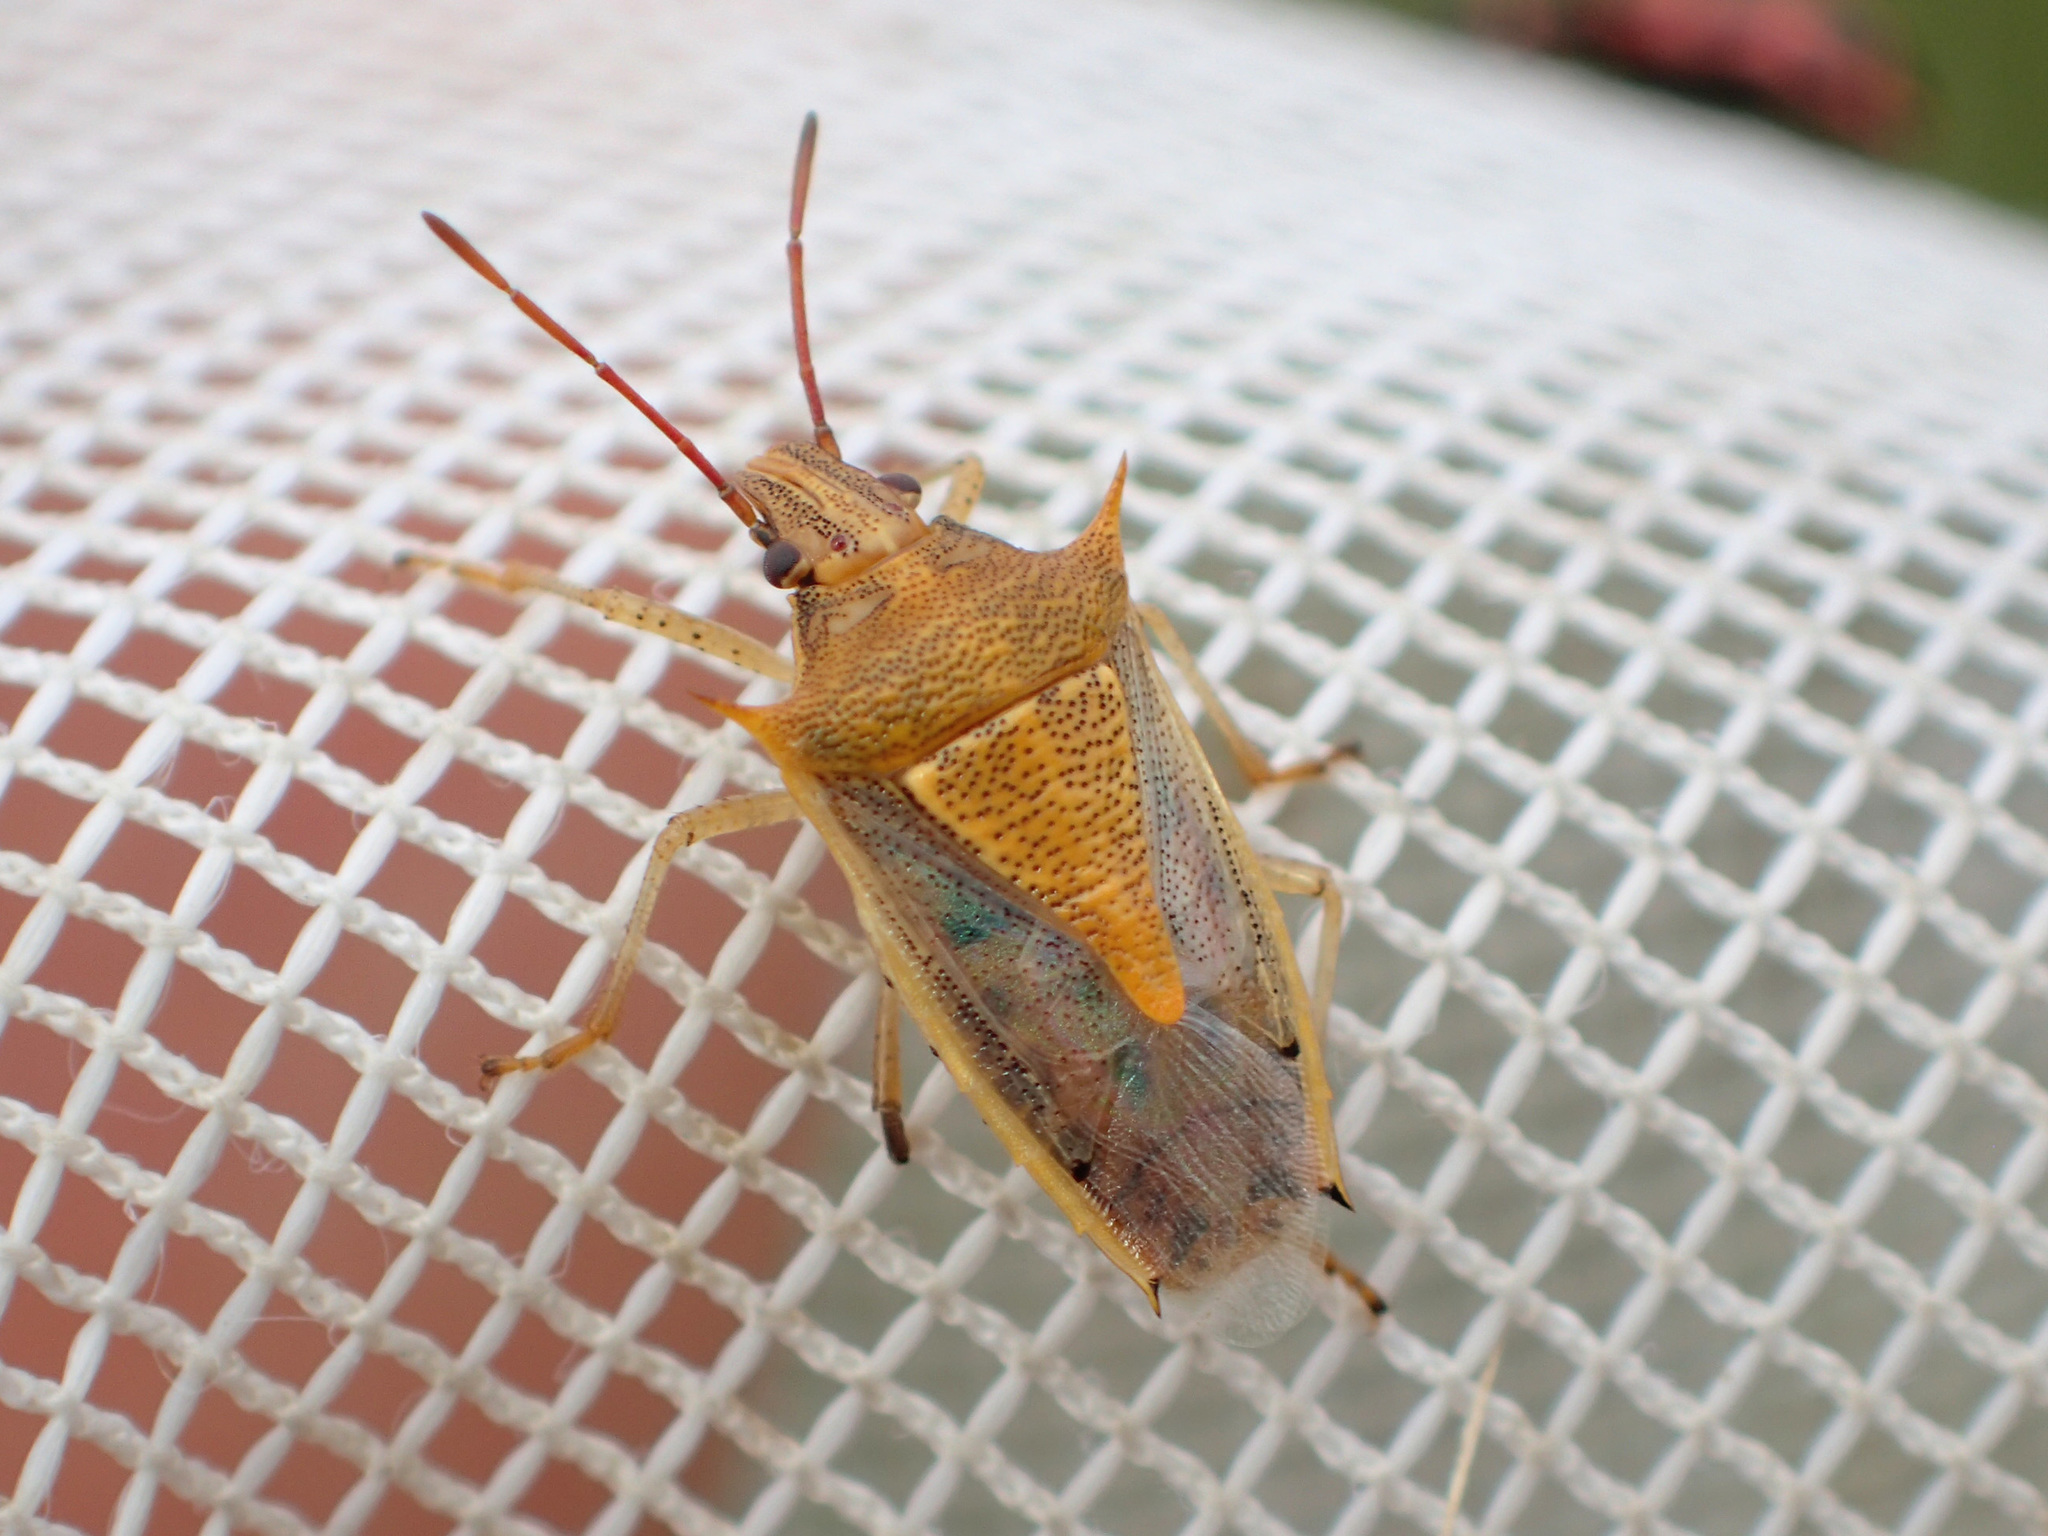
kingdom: Animalia
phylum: Arthropoda
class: Insecta
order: Hemiptera
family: Pentatomidae
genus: Oebalus
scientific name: Oebalus pugnax
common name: Rice stink bug
